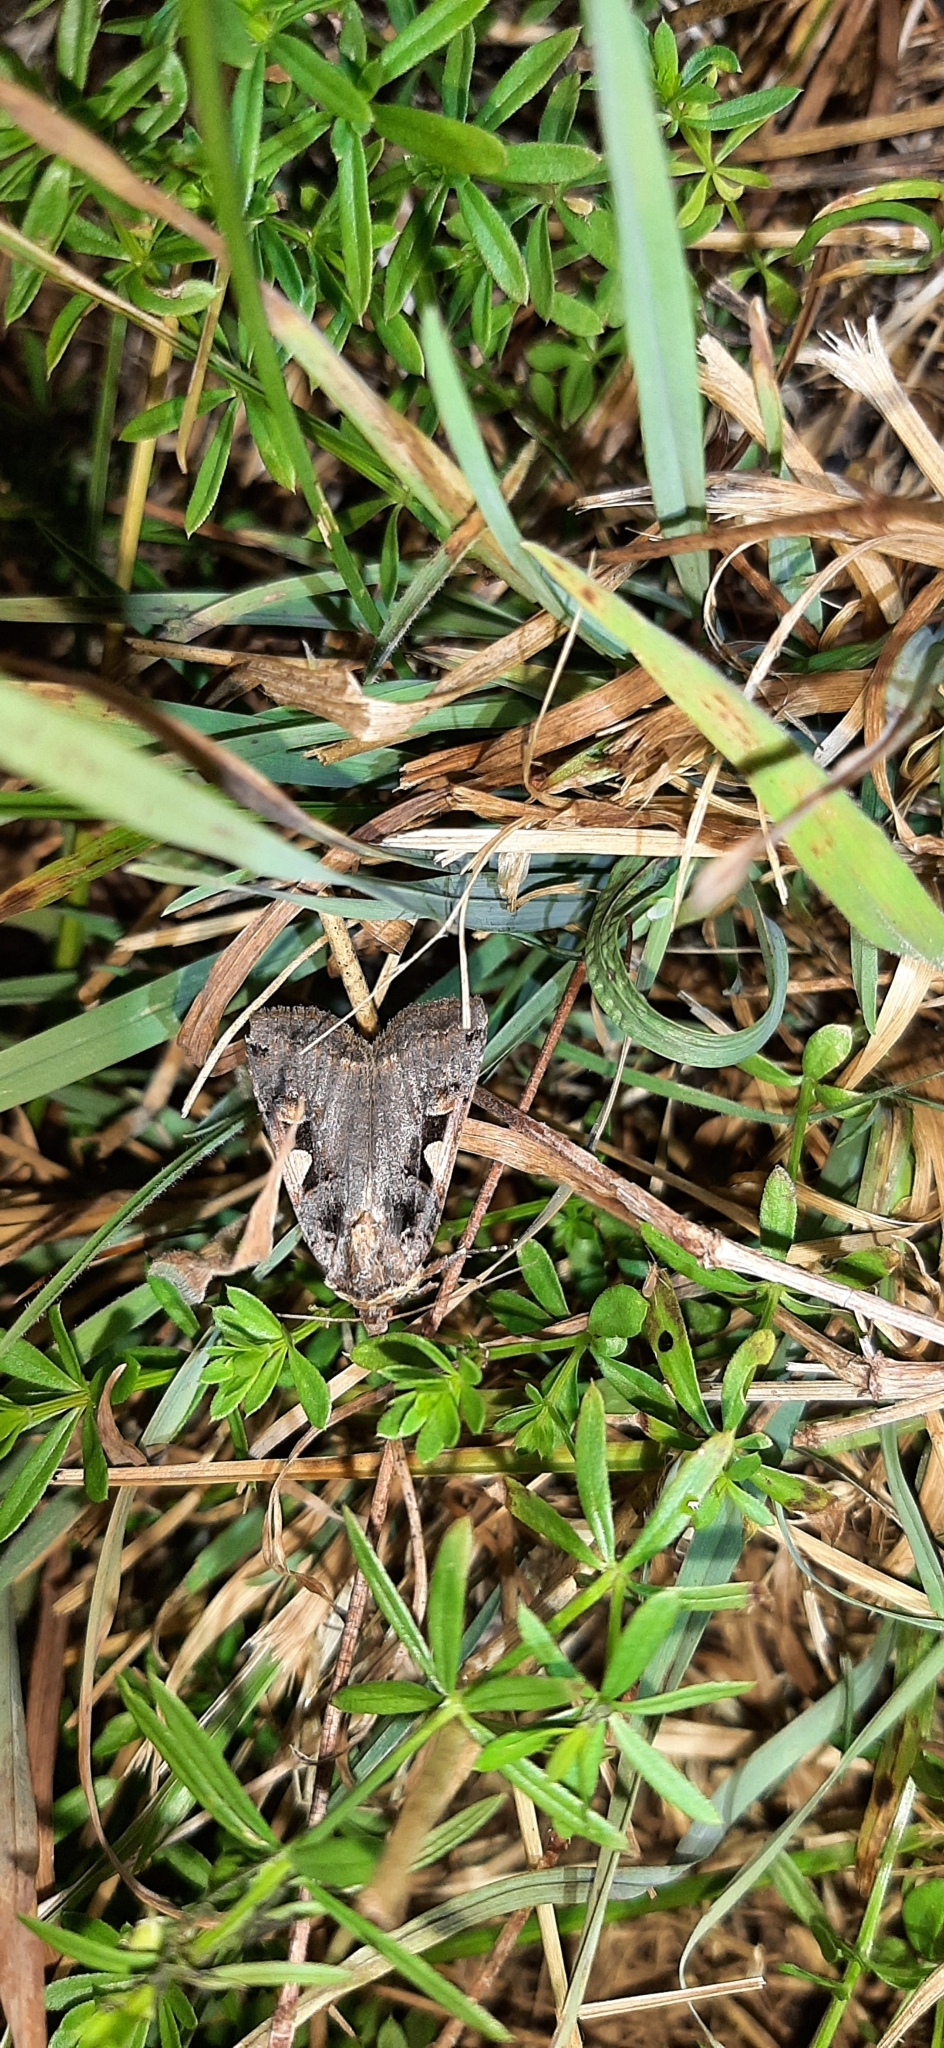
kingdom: Animalia
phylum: Arthropoda
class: Insecta
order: Lepidoptera
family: Noctuidae
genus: Xestia
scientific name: Xestia c-nigrum
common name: Setaceous hebrew character
